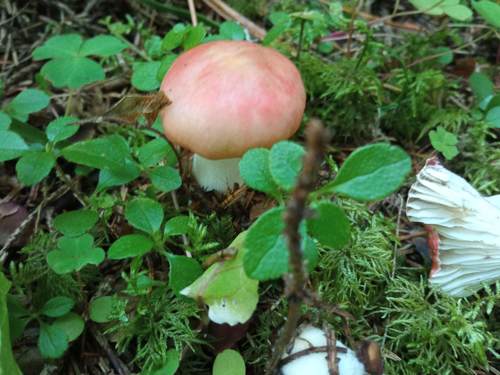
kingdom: Fungi
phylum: Basidiomycota
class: Agaricomycetes
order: Russulales
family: Russulaceae
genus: Russula
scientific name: Russula paludosa
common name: Hintapink
